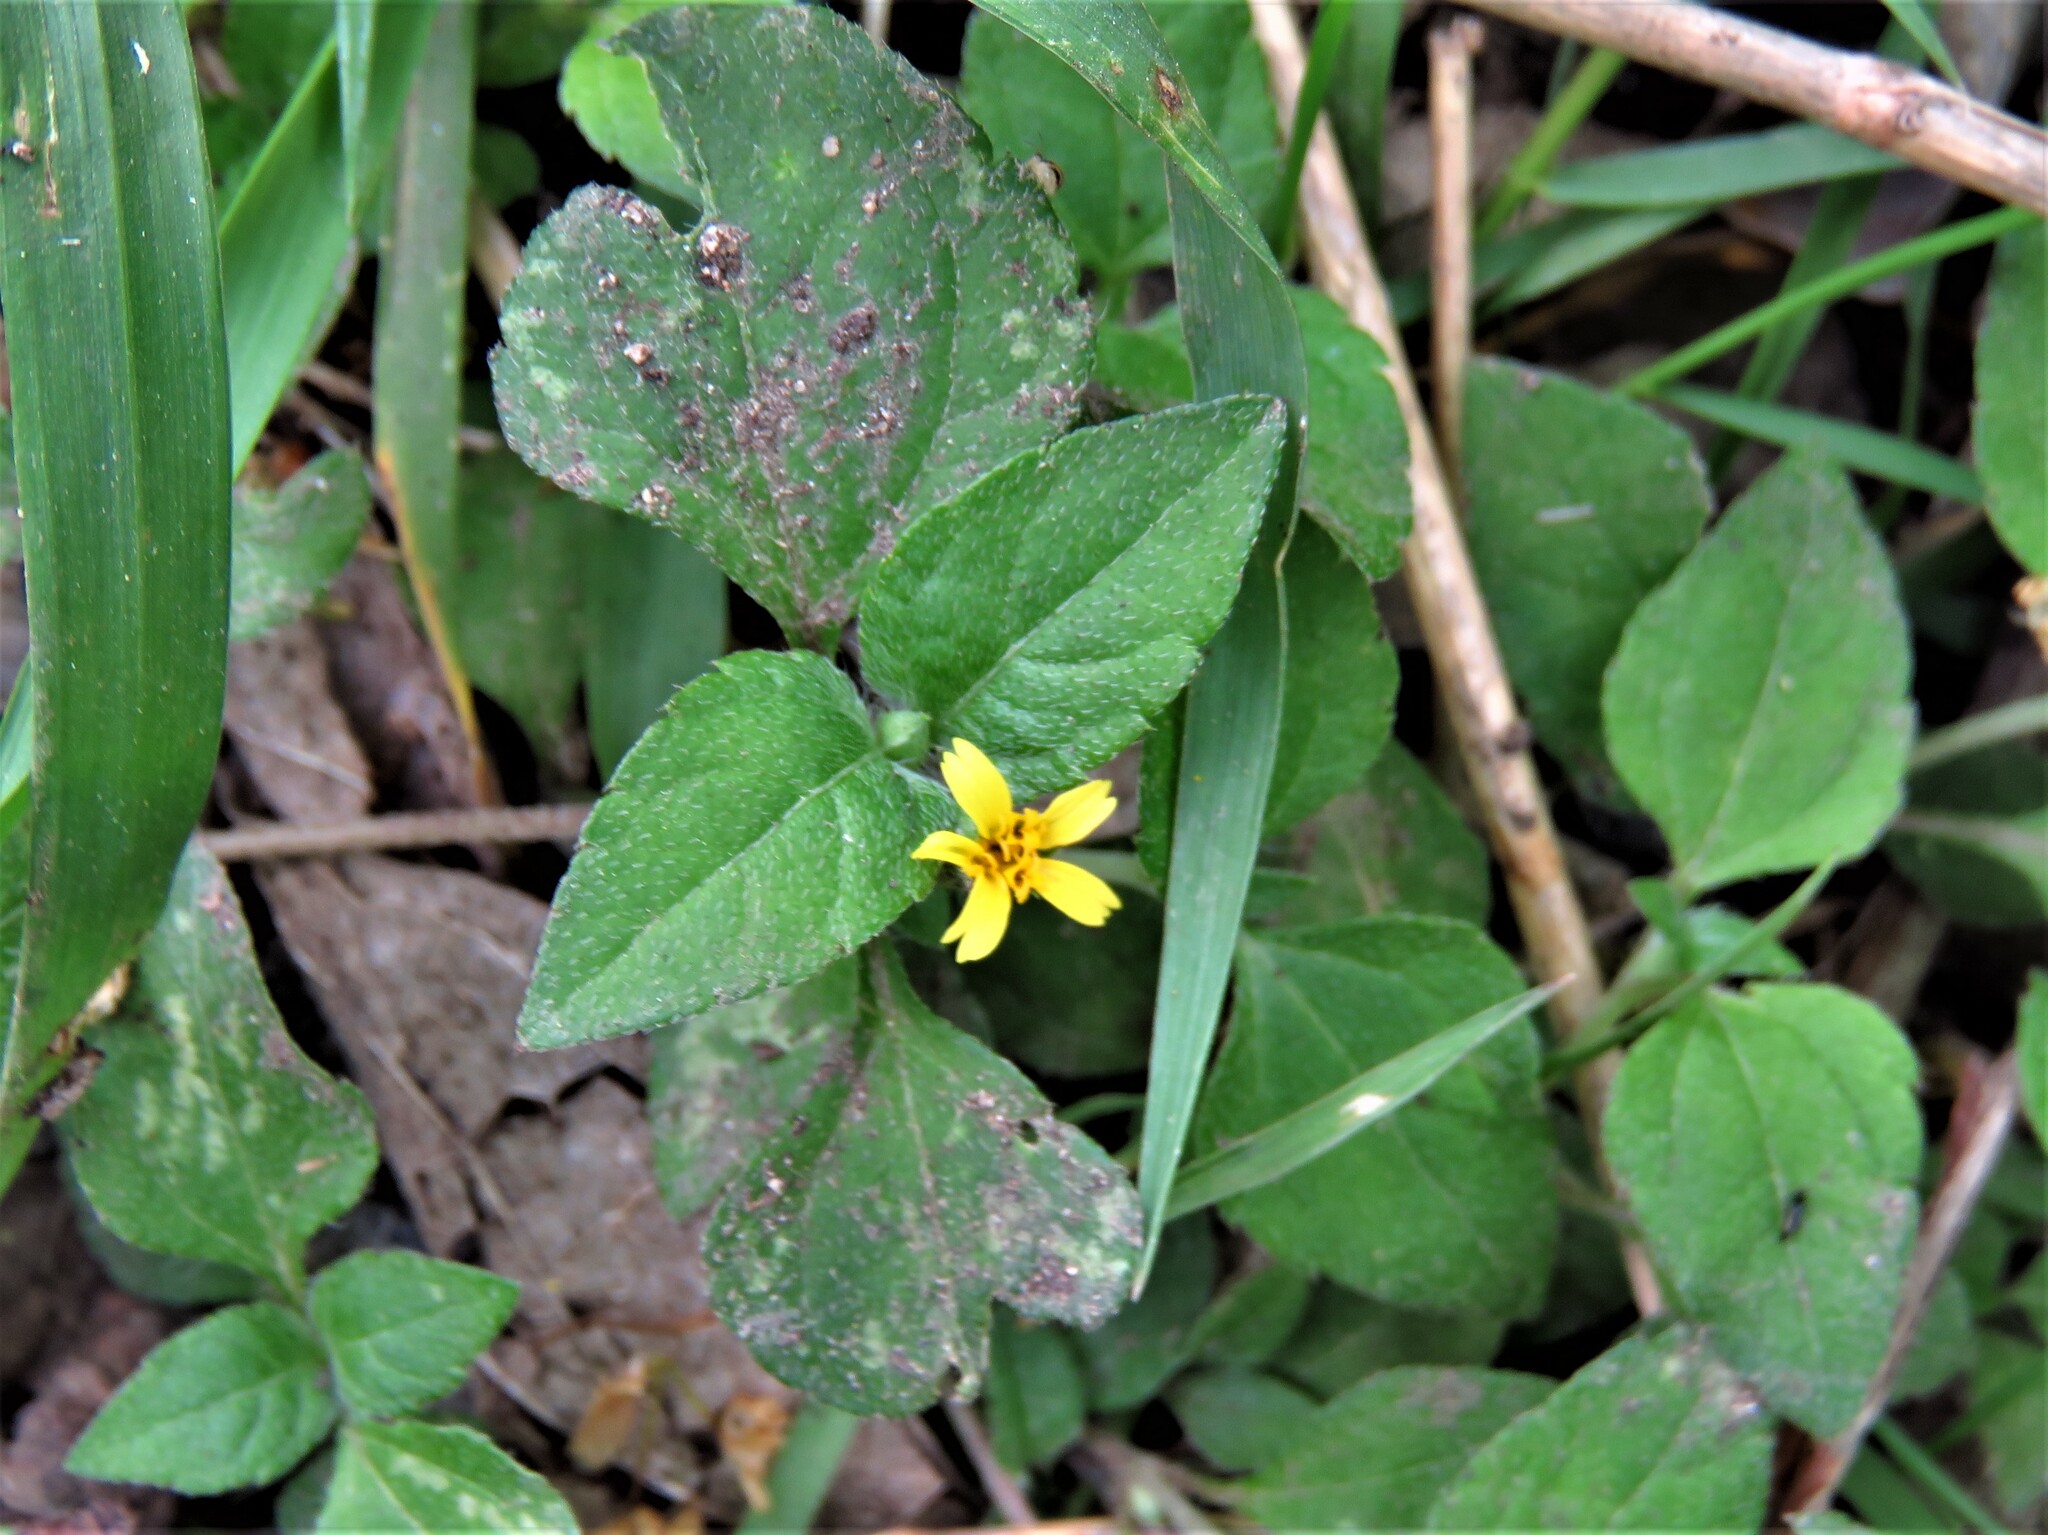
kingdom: Plantae
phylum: Tracheophyta
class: Magnoliopsida
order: Asterales
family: Asteraceae
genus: Calyptocarpus
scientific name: Calyptocarpus vialis
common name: Straggler daisy
